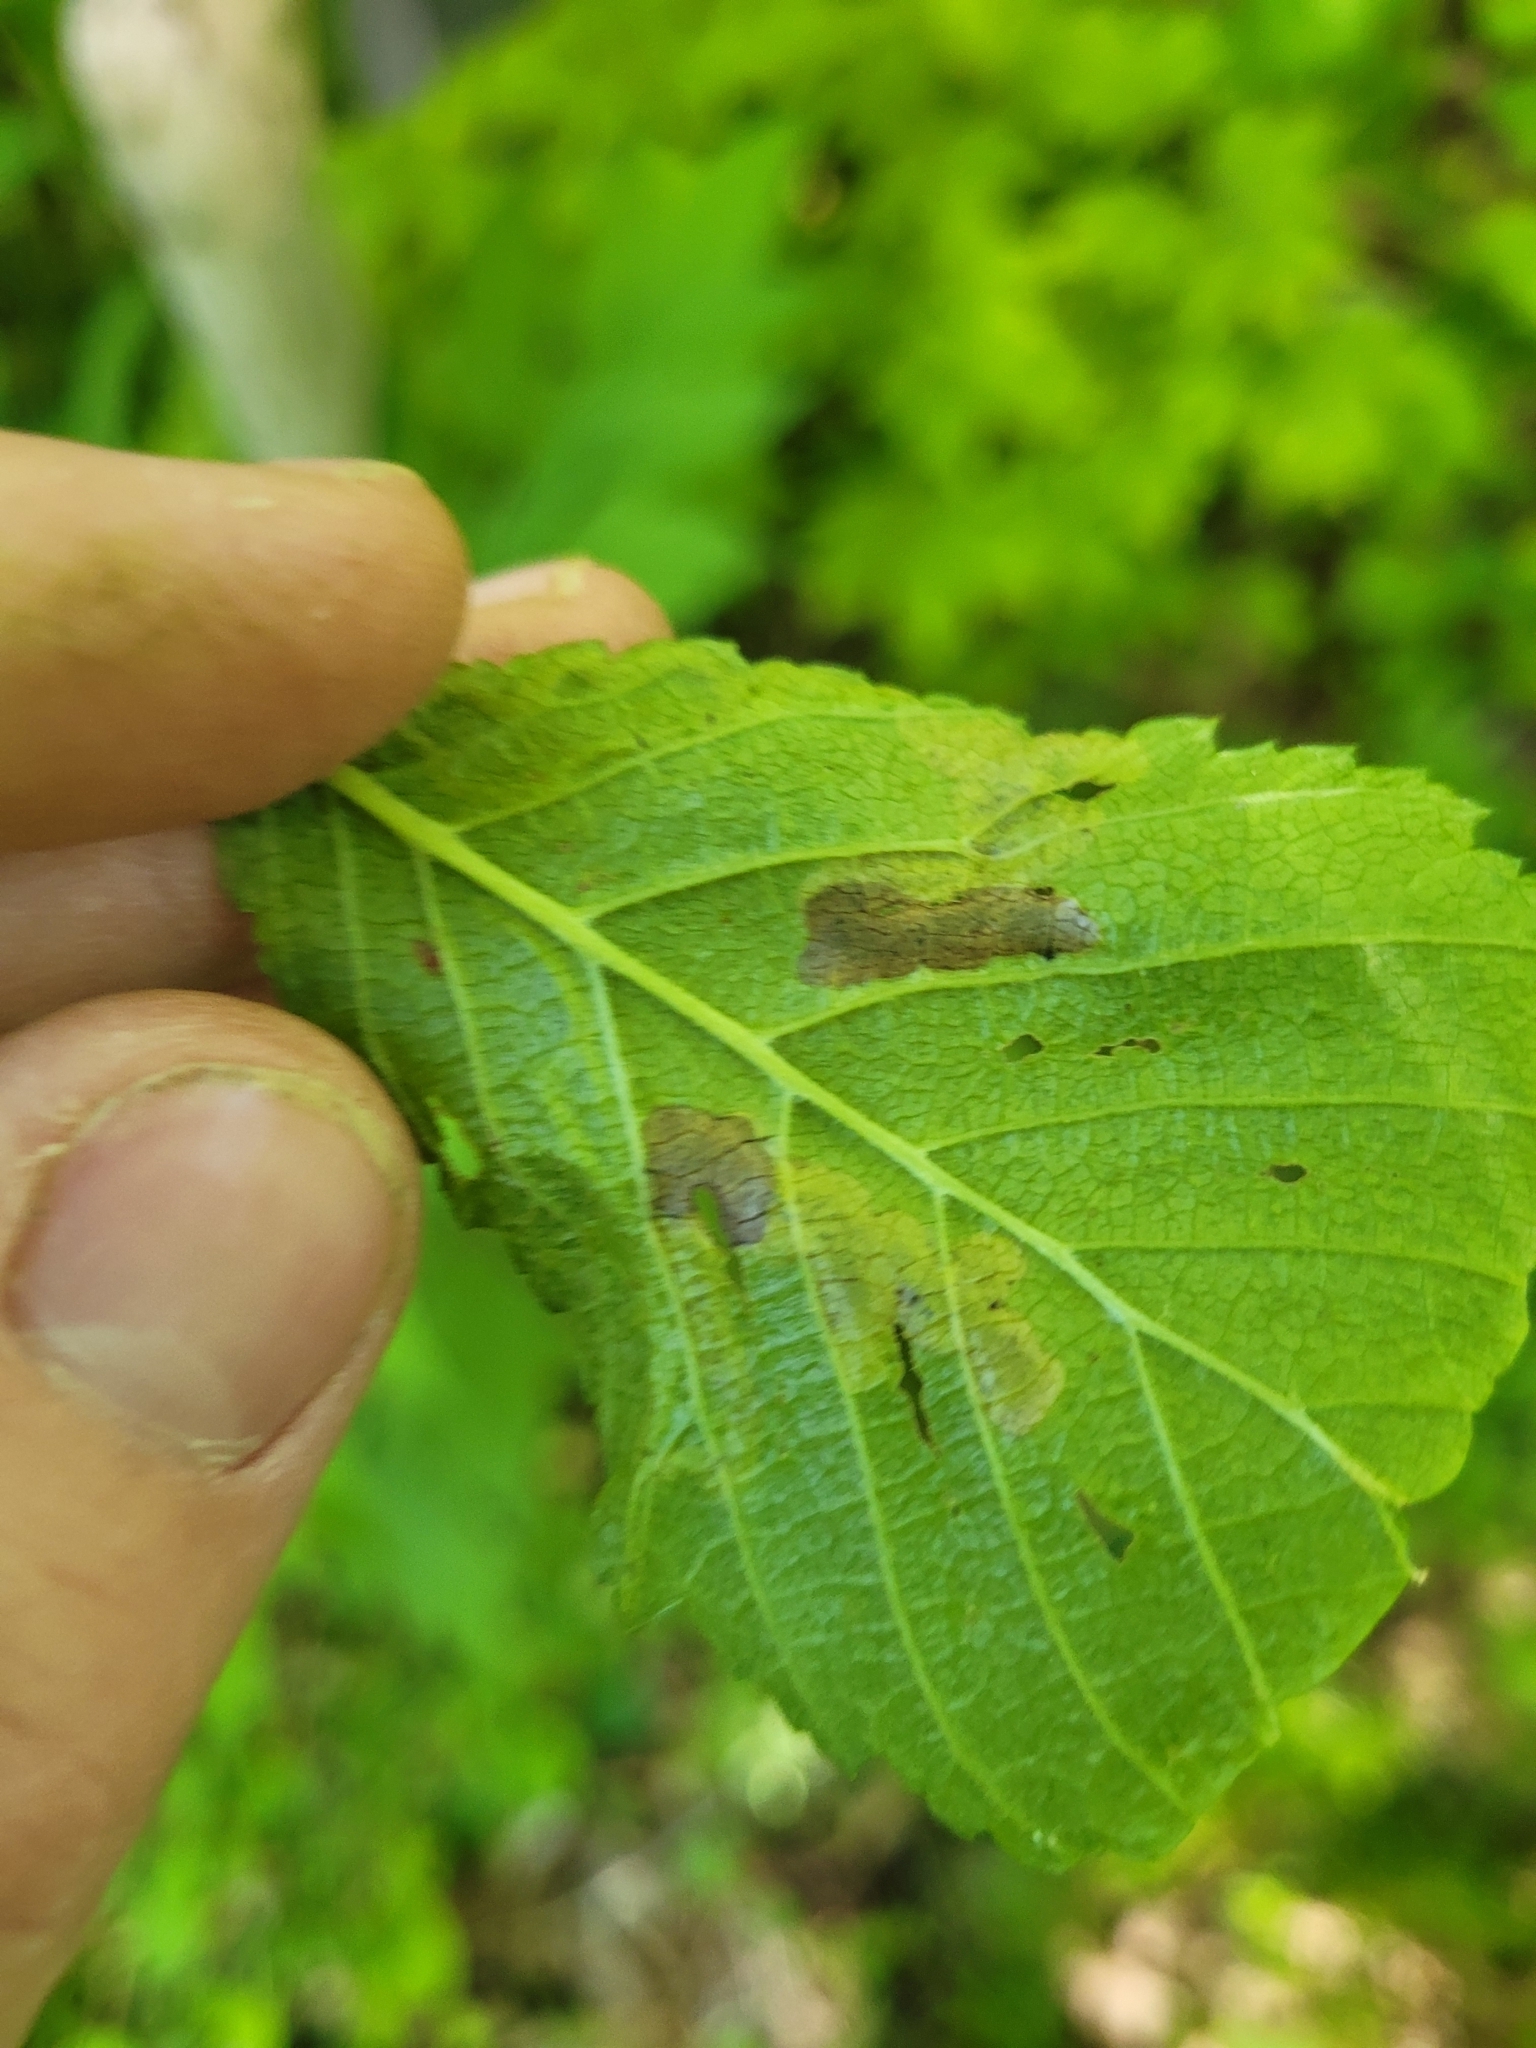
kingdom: Animalia
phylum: Arthropoda
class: Insecta
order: Diptera
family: Agromyzidae
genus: Agromyza
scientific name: Agromyza aristata
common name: Elm agromyzid leafminer
